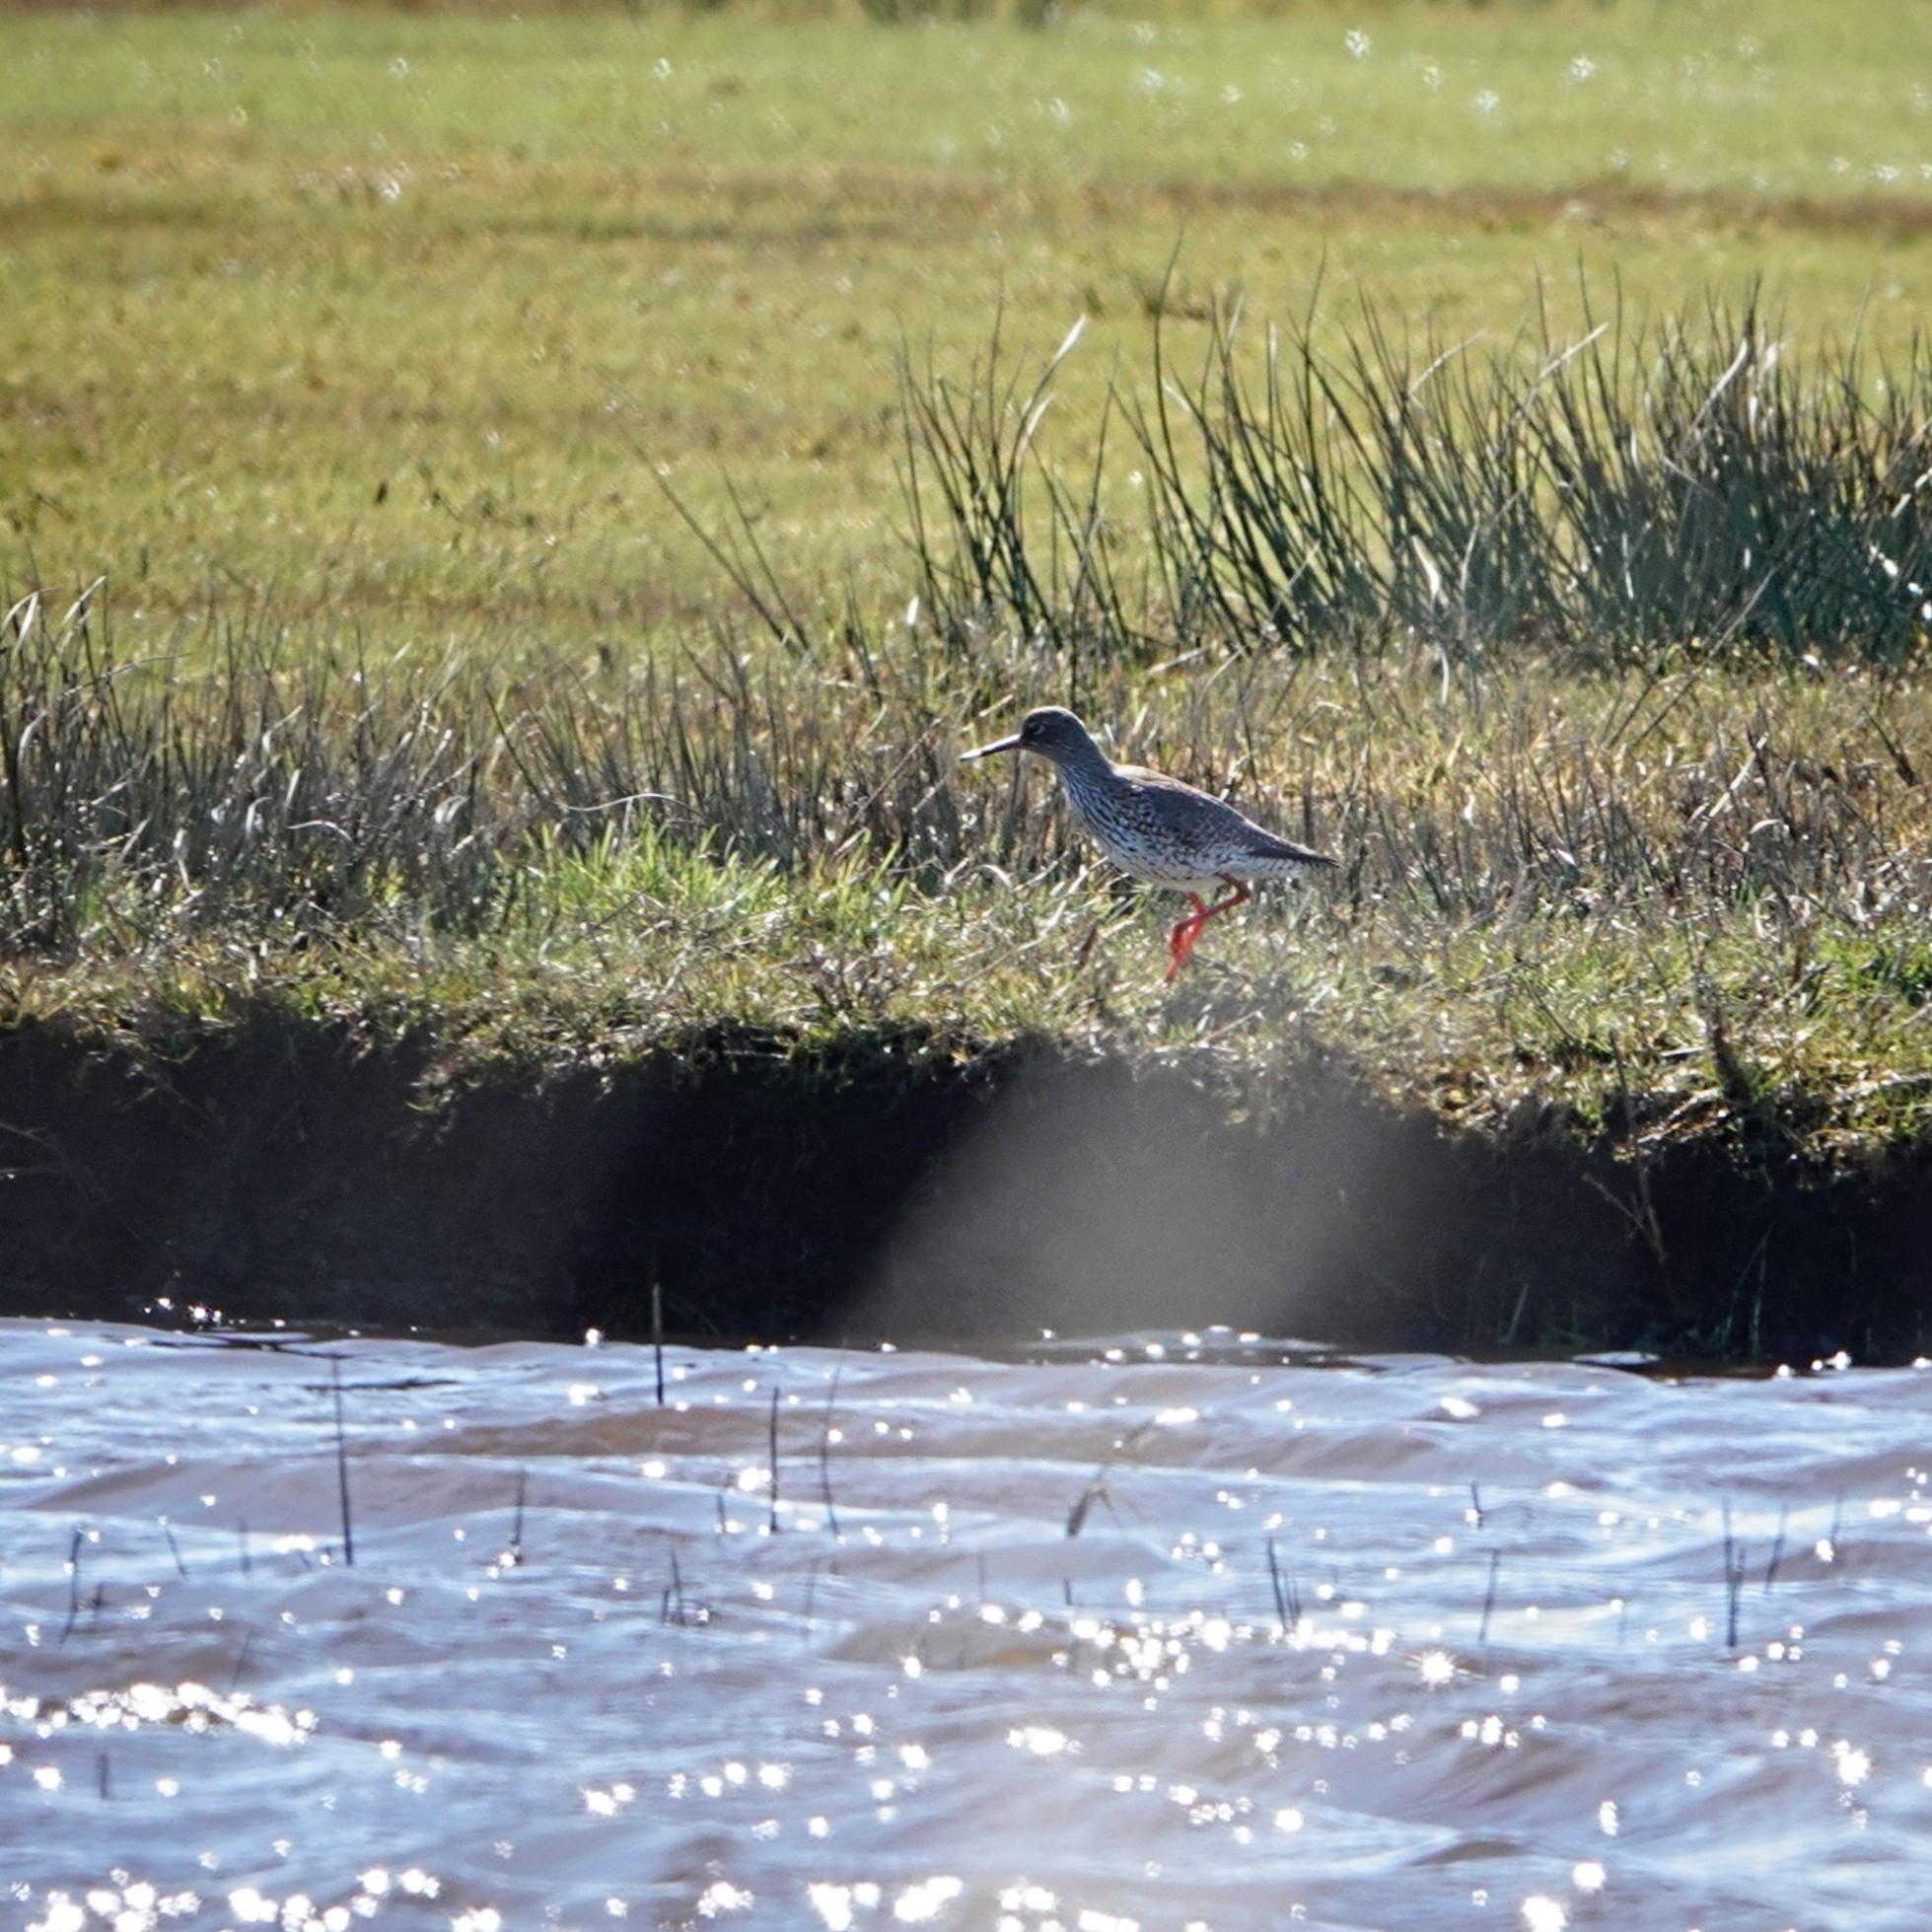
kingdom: Animalia
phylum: Chordata
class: Aves
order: Charadriiformes
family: Scolopacidae
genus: Tringa
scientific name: Tringa totanus
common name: Common redshank
